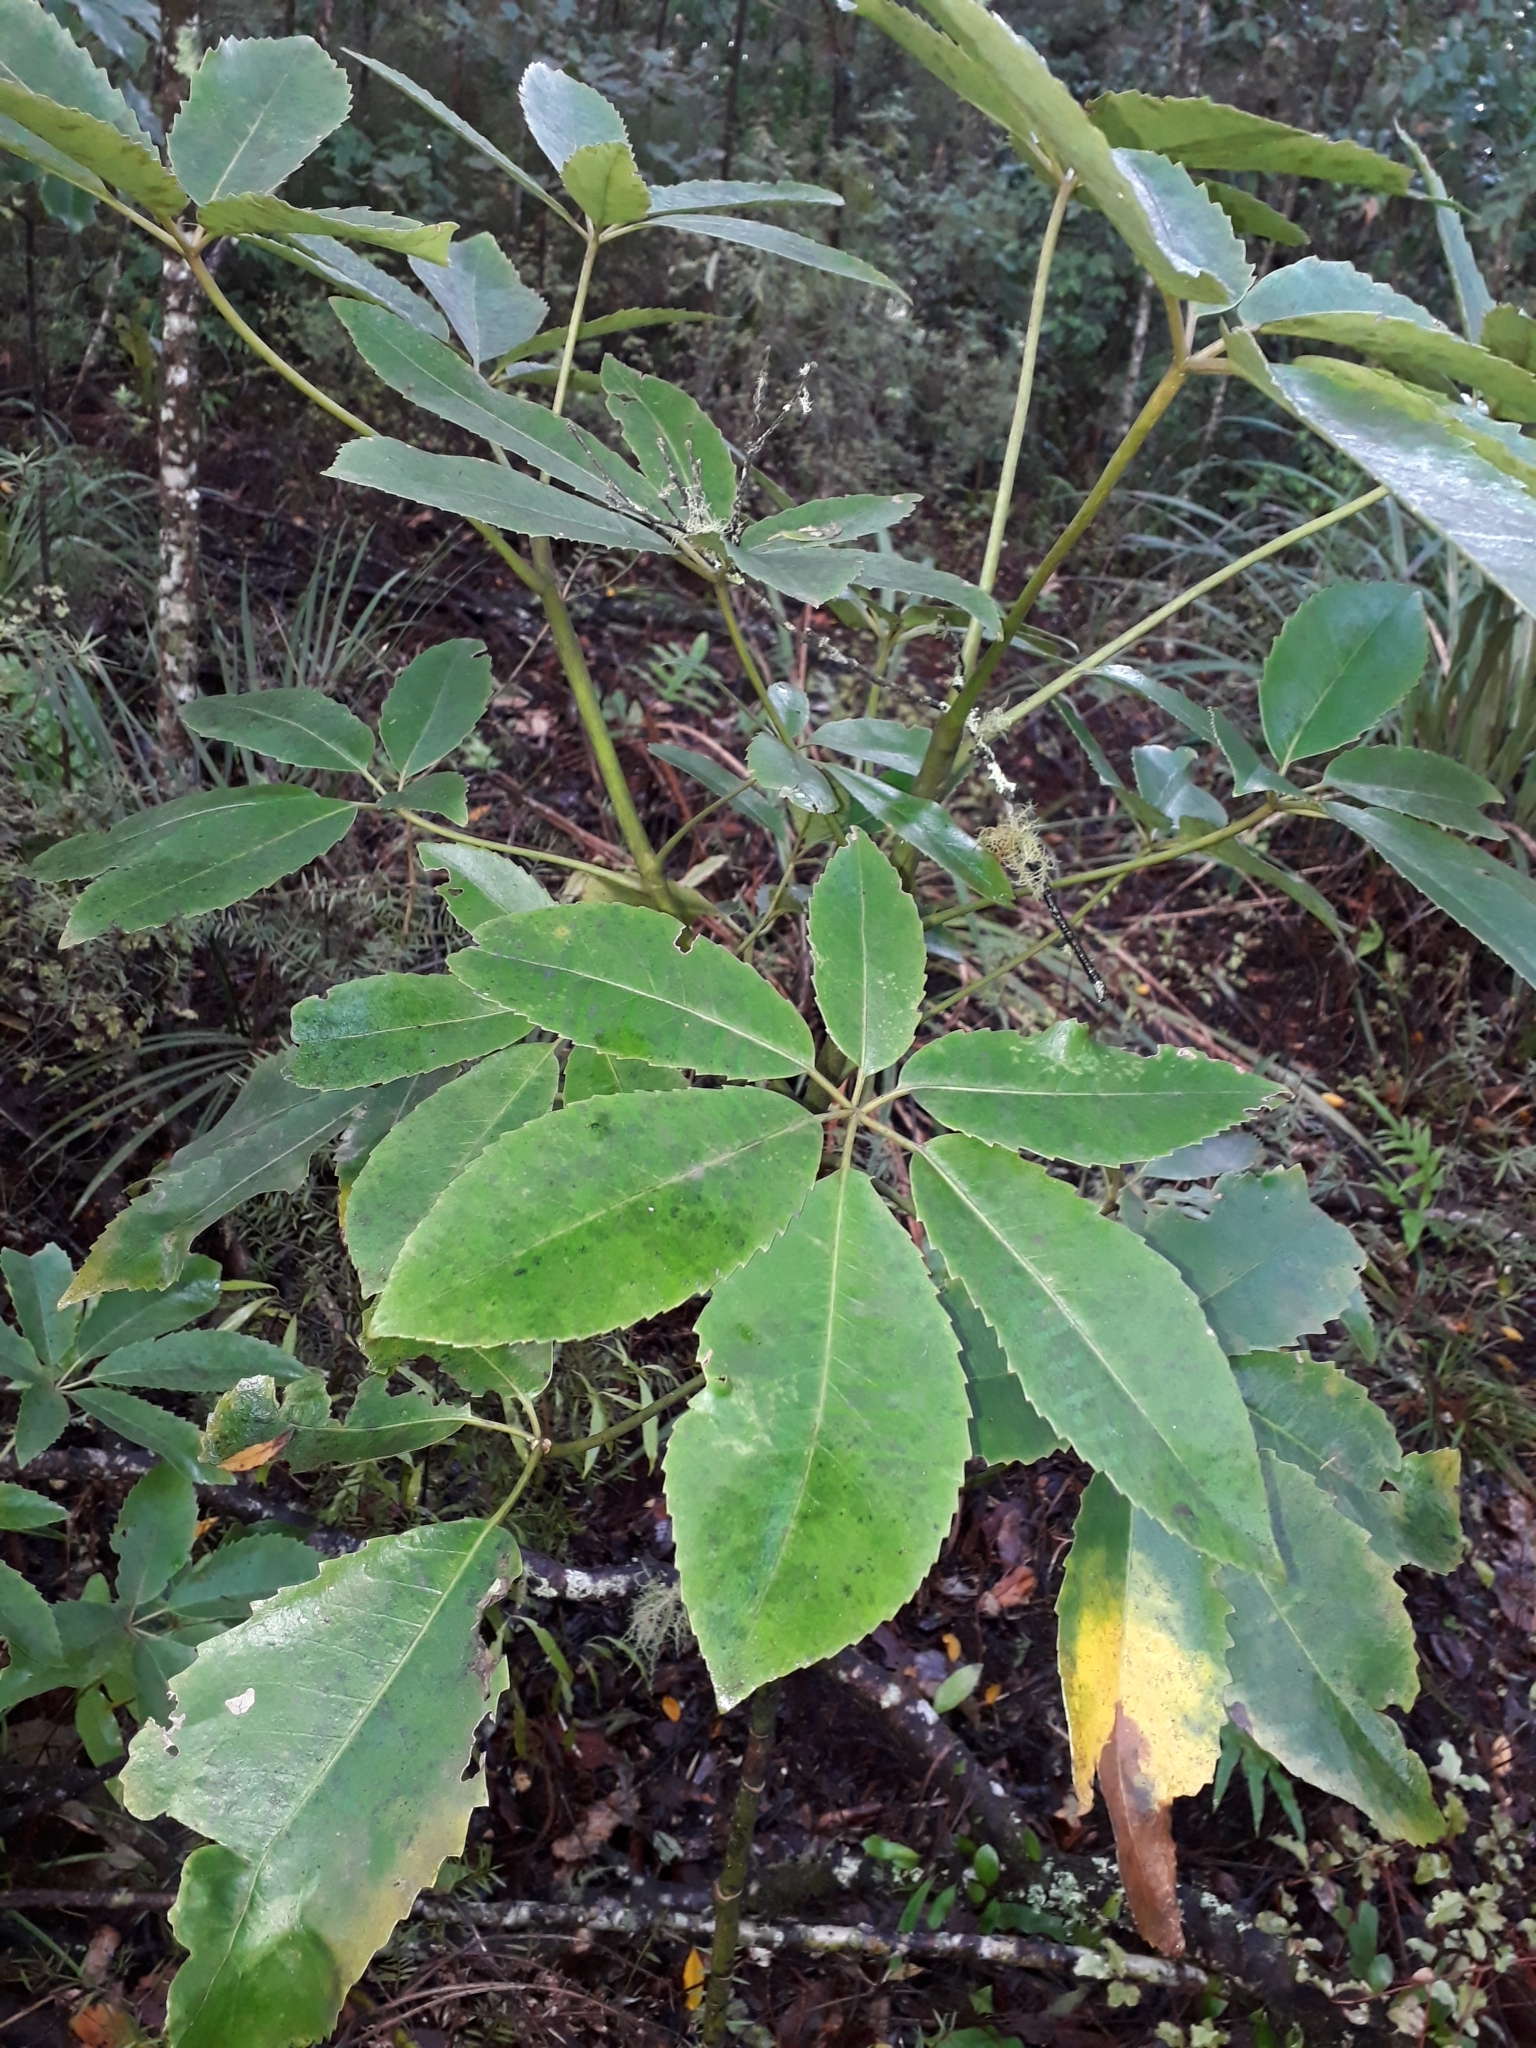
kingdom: Plantae
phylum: Tracheophyta
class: Magnoliopsida
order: Apiales
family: Araliaceae
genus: Neopanax
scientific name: Neopanax arboreus
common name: Five-fingers
